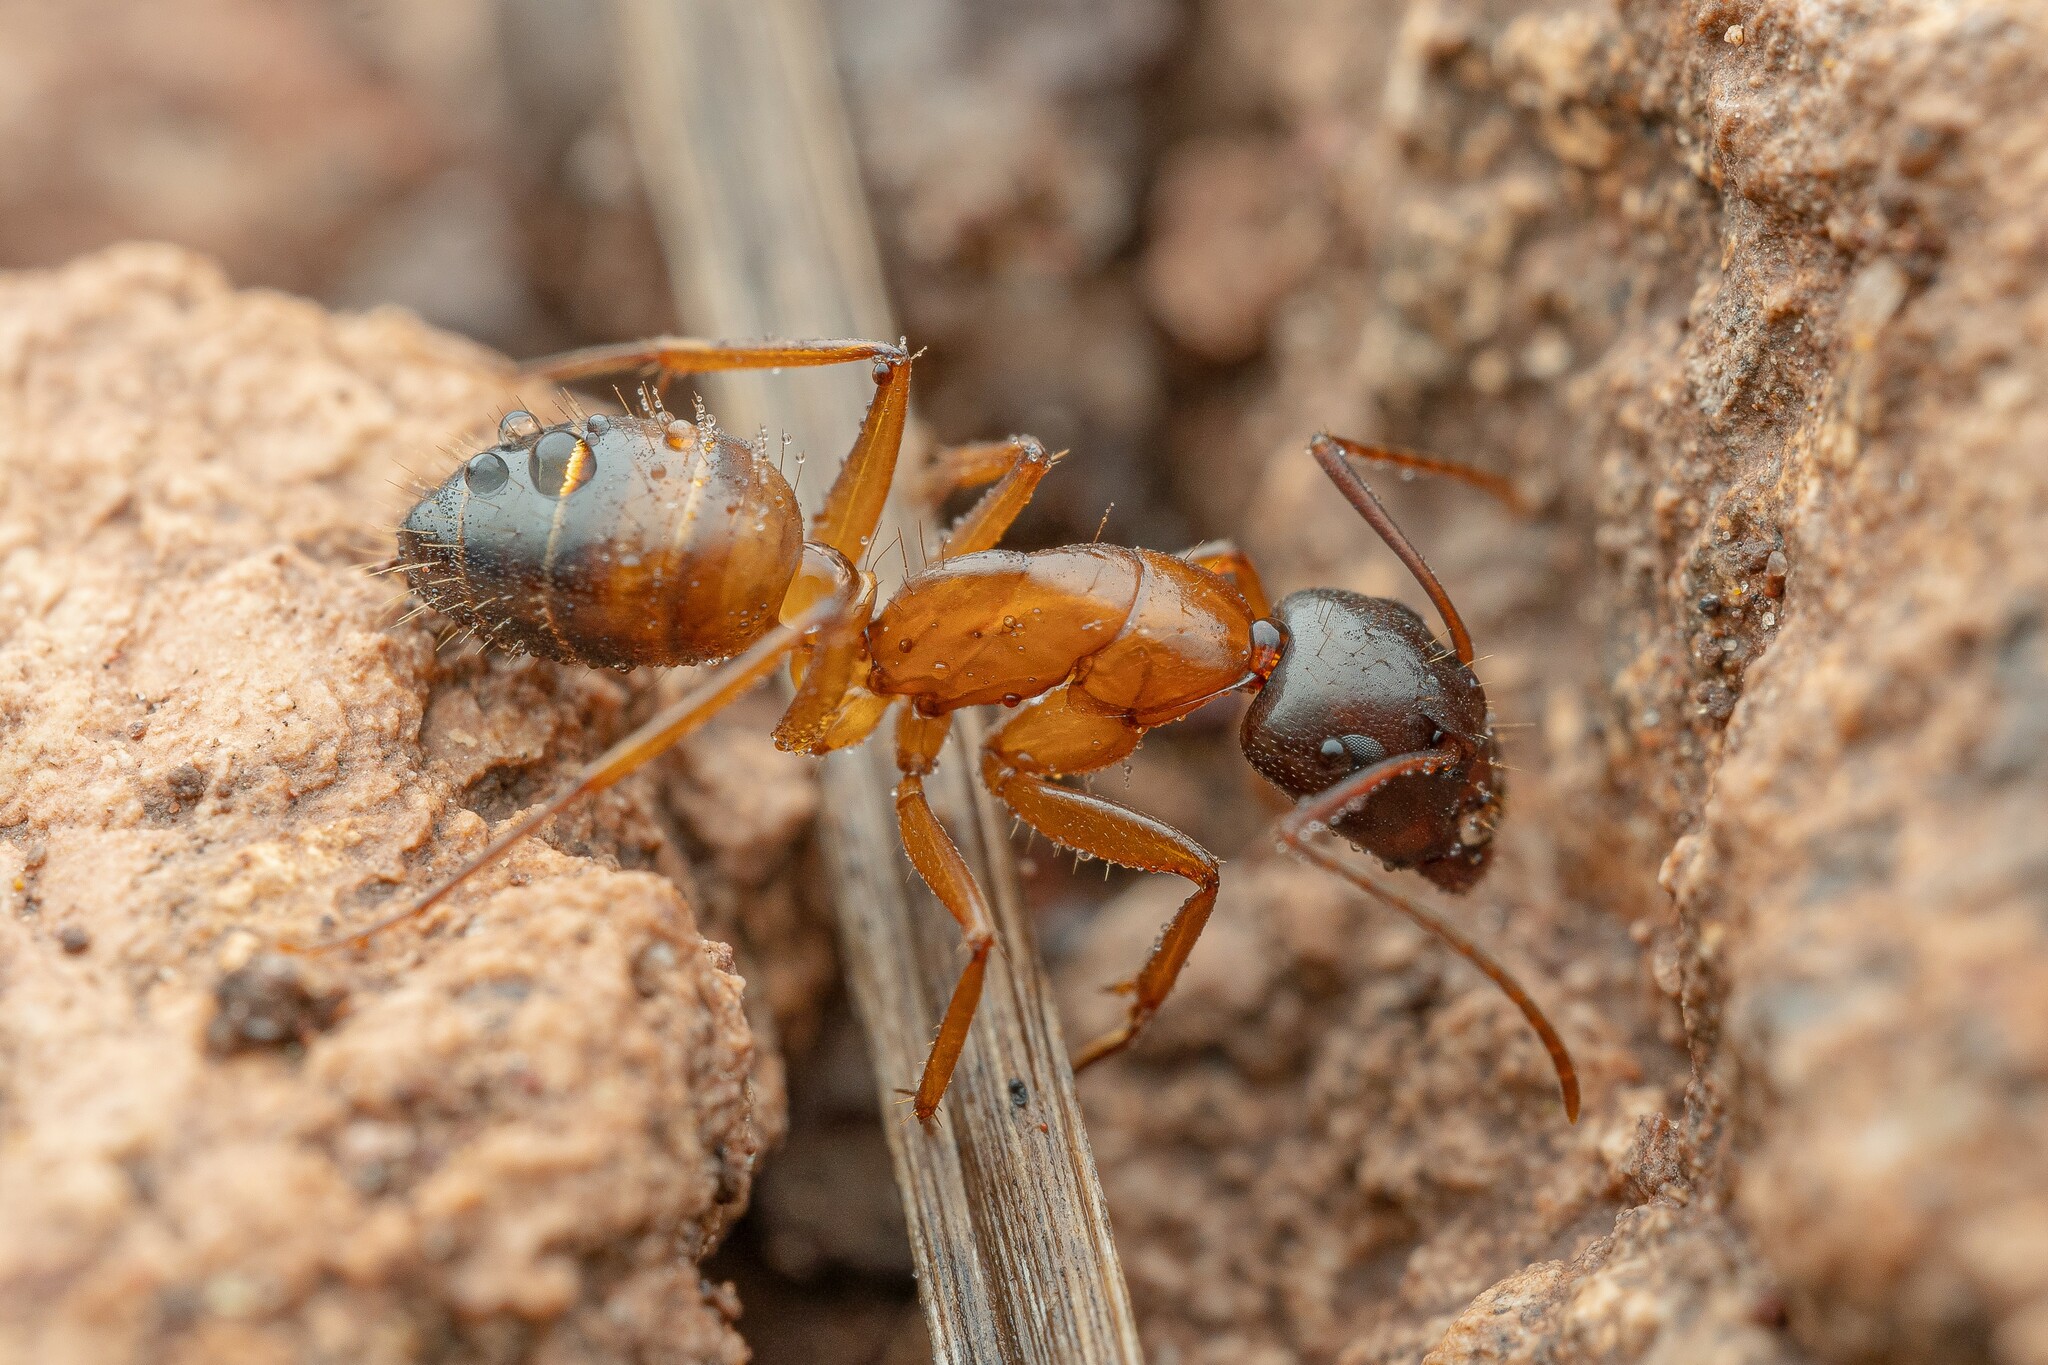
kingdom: Animalia
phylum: Arthropoda
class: Insecta
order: Hymenoptera
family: Formicidae
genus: Camponotus
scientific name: Camponotus sansabeanus
